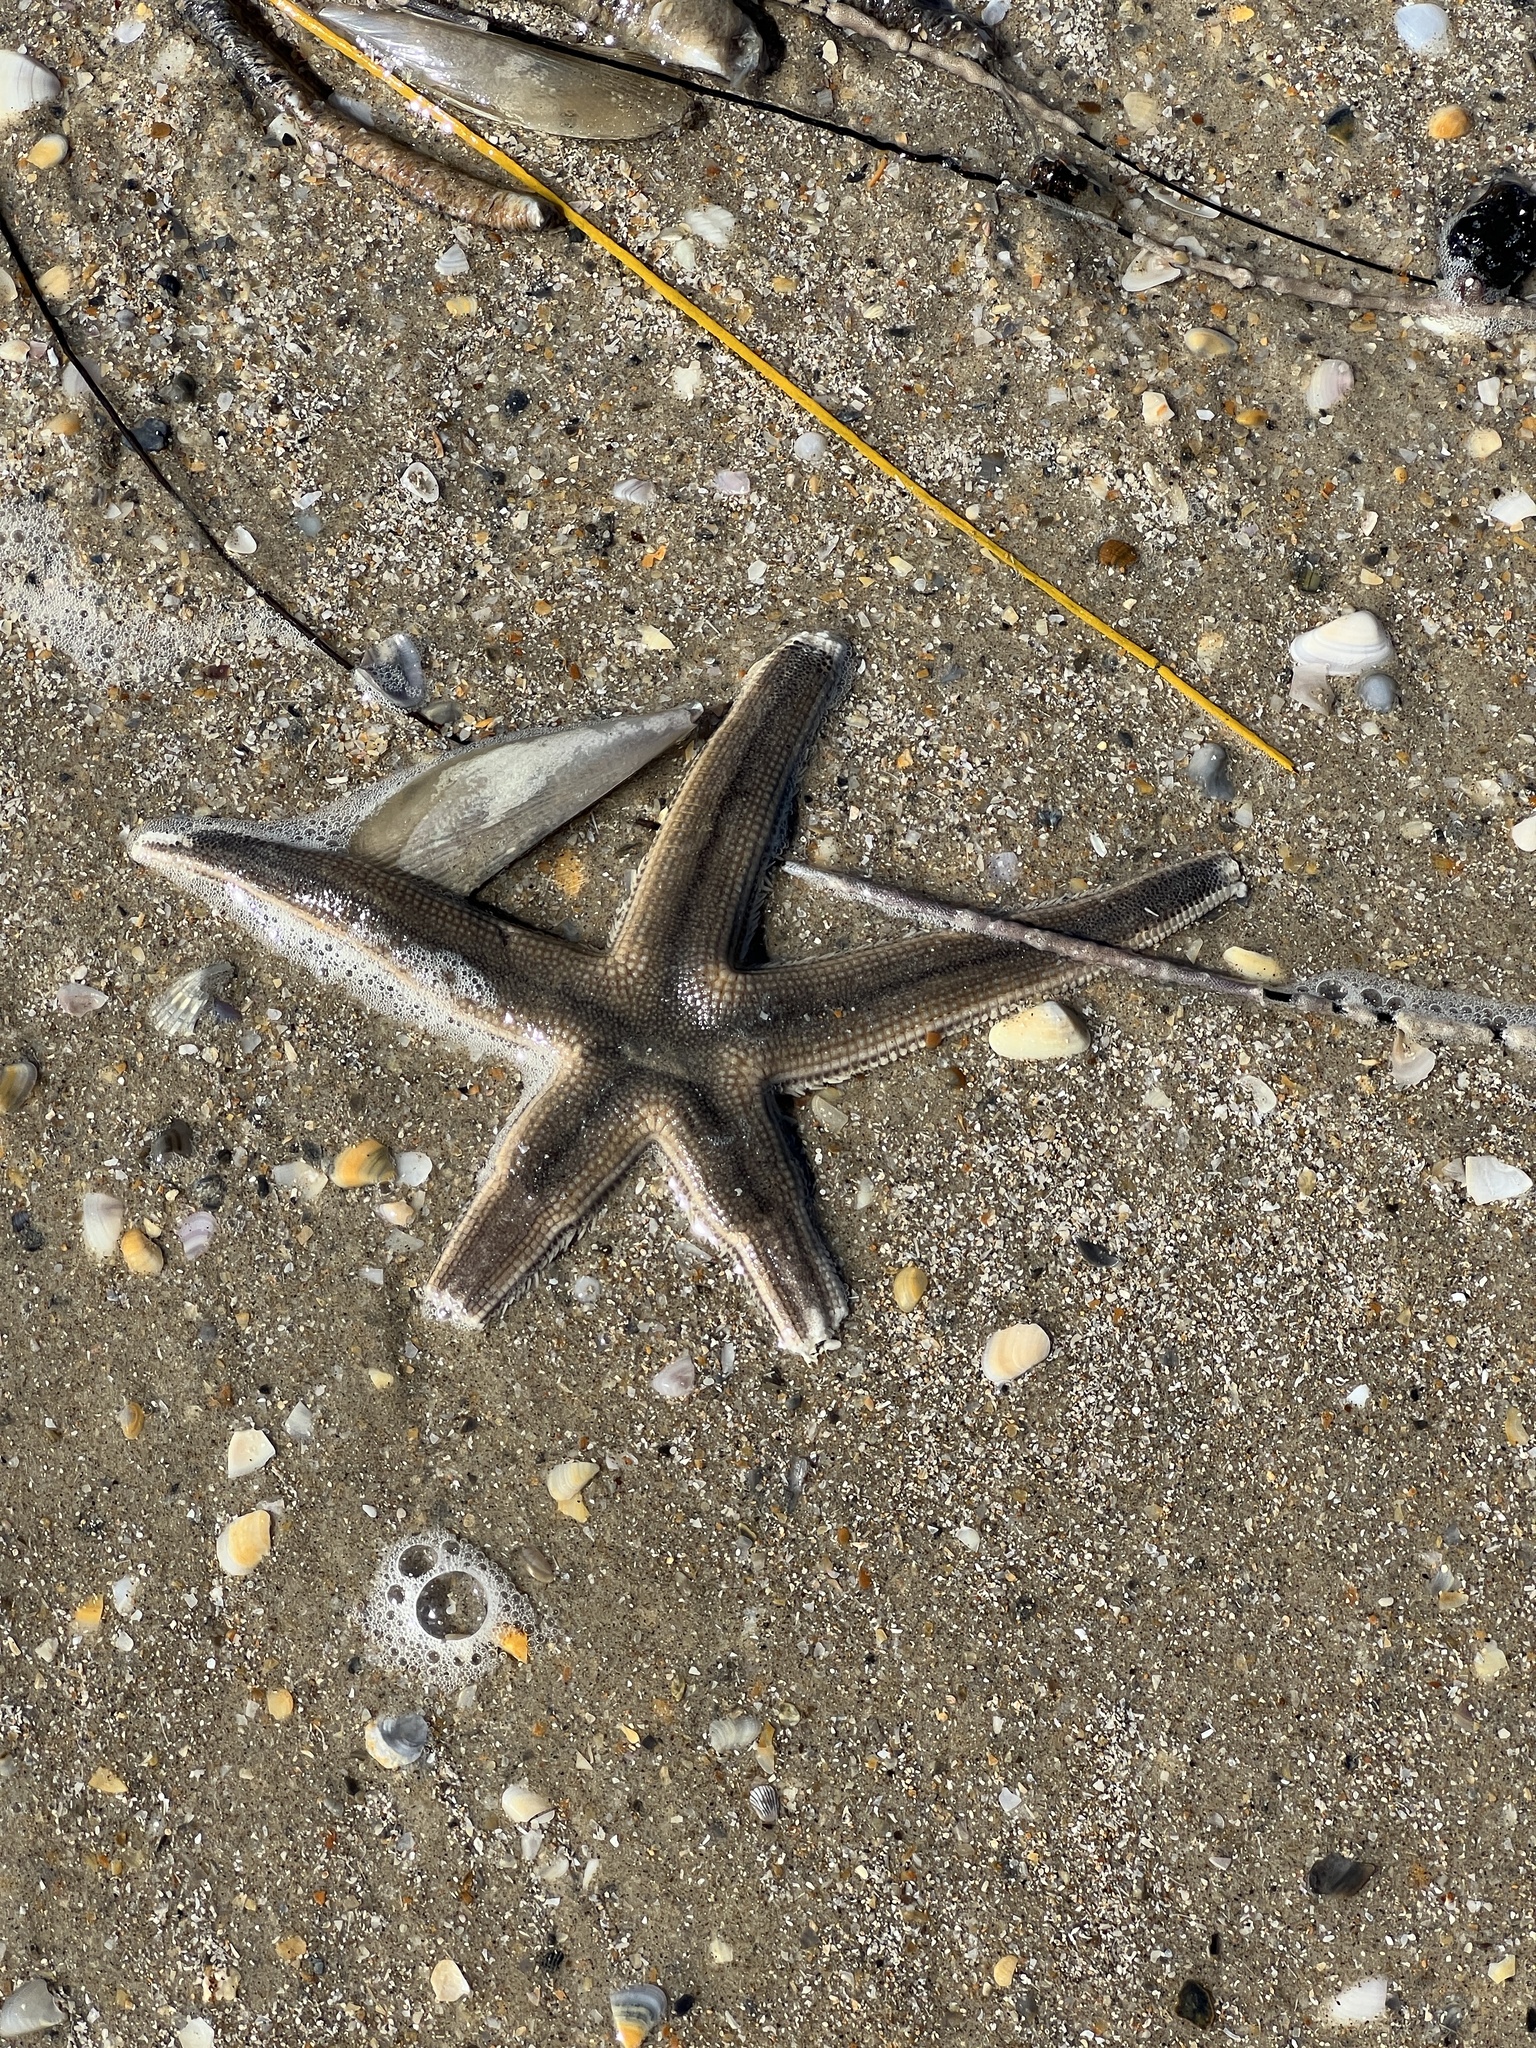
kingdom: Animalia
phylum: Echinodermata
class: Asteroidea
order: Paxillosida
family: Luidiidae
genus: Luidia
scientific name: Luidia clathrata
